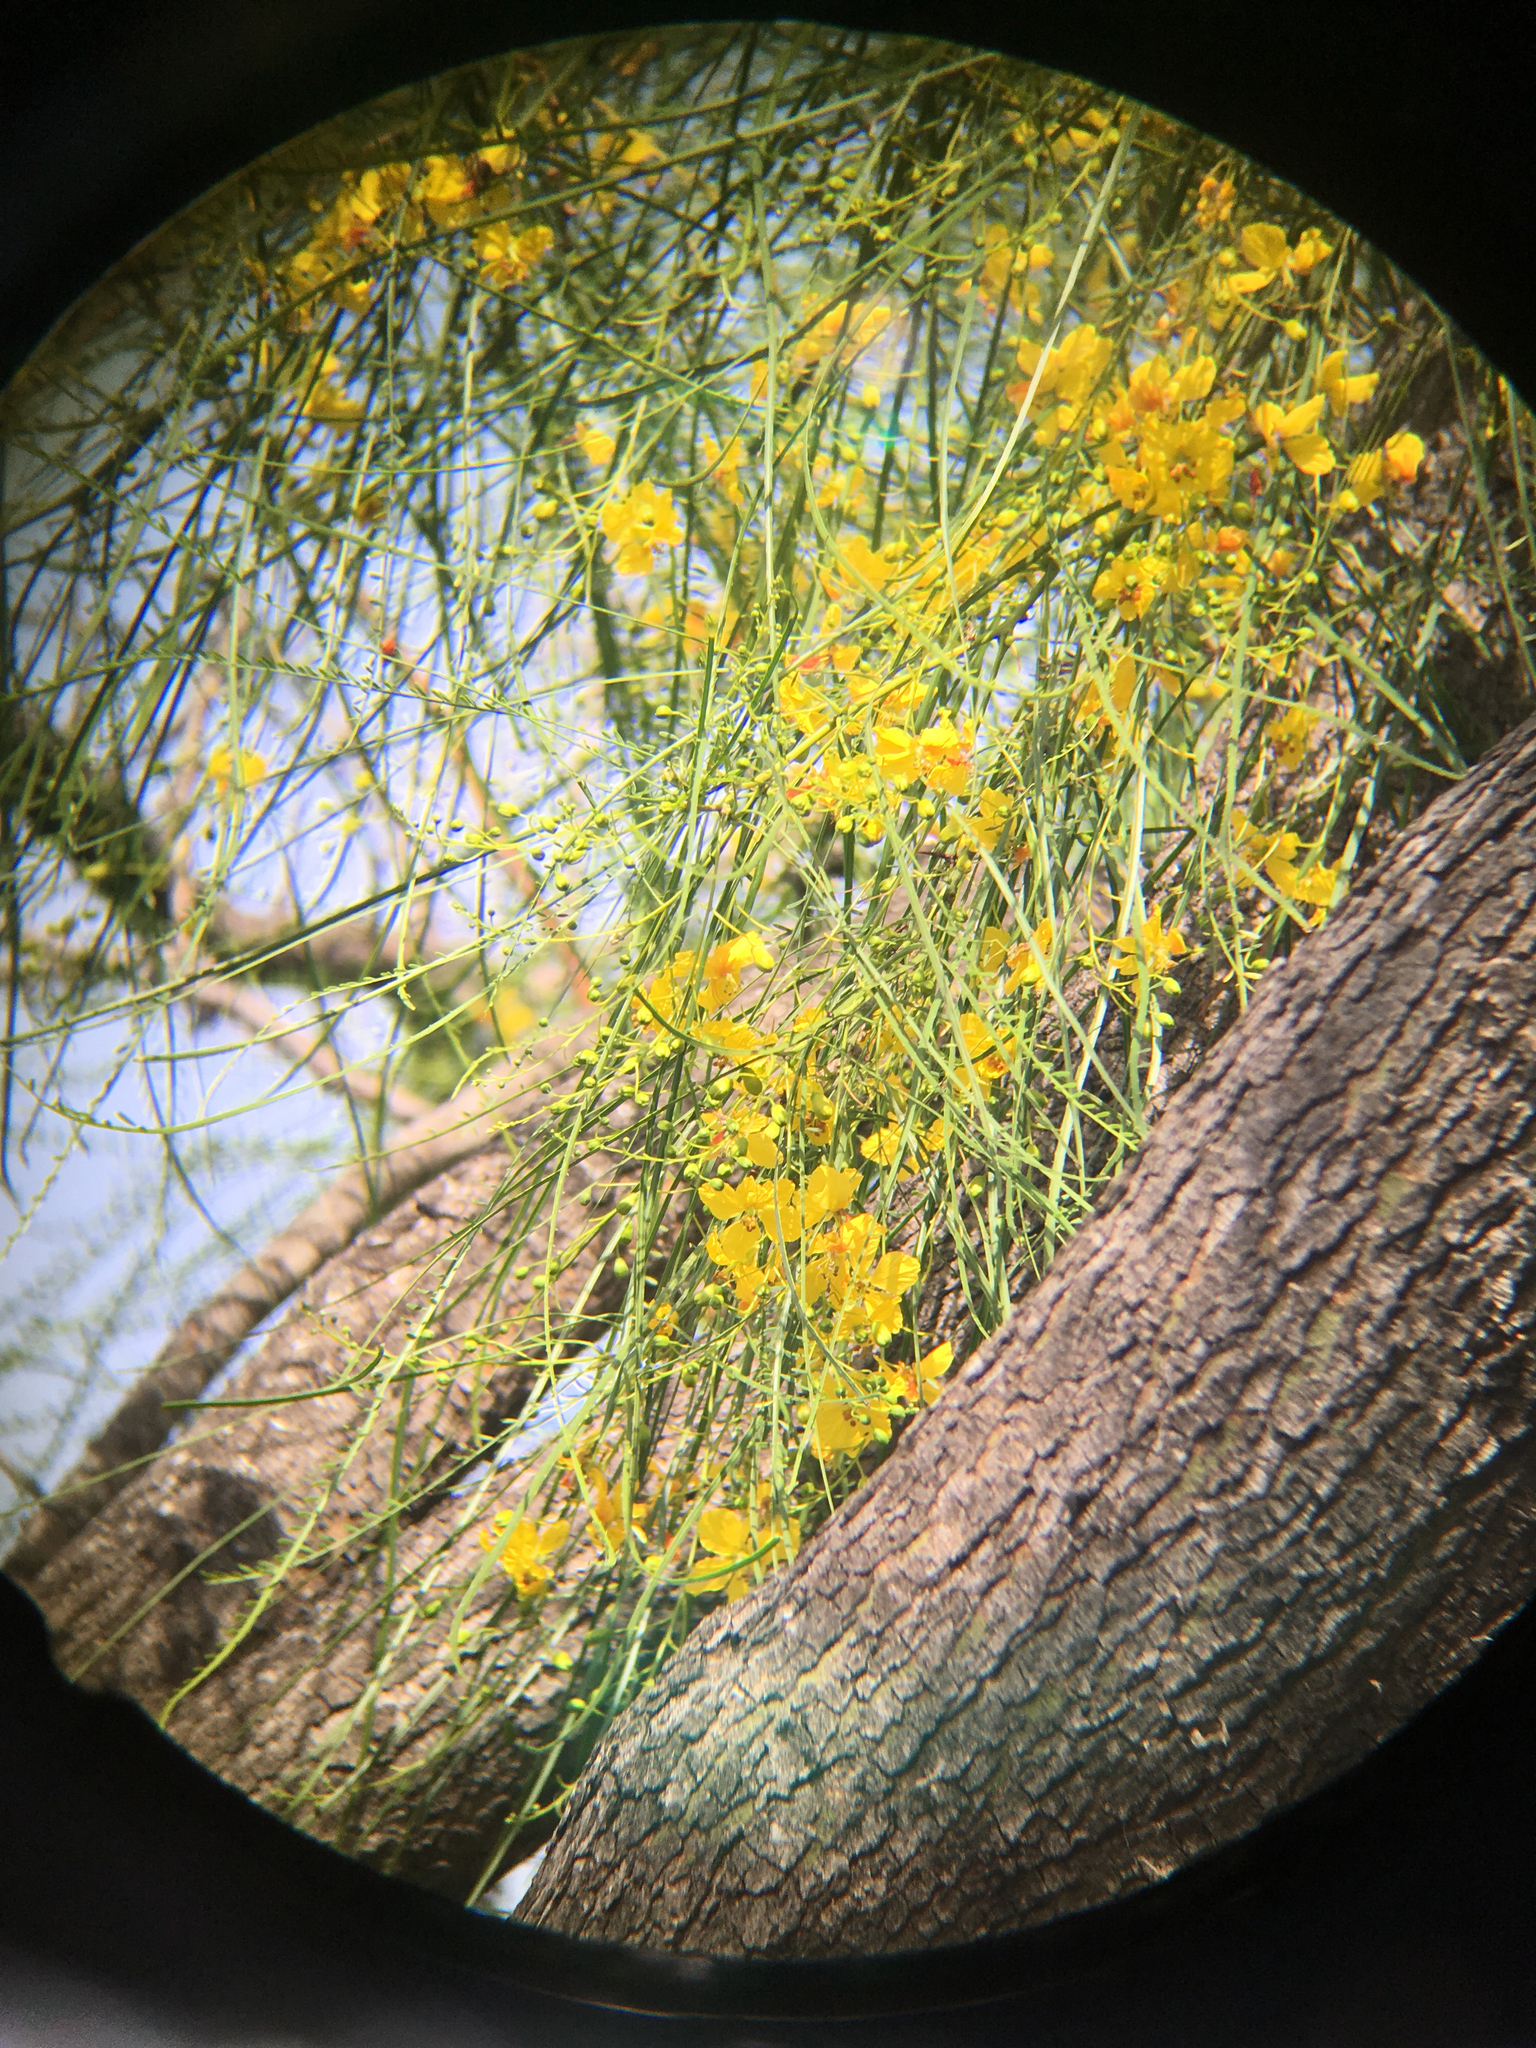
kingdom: Plantae
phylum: Tracheophyta
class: Magnoliopsida
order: Fabales
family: Fabaceae
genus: Parkinsonia
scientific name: Parkinsonia aculeata
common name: Jerusalem thorn
